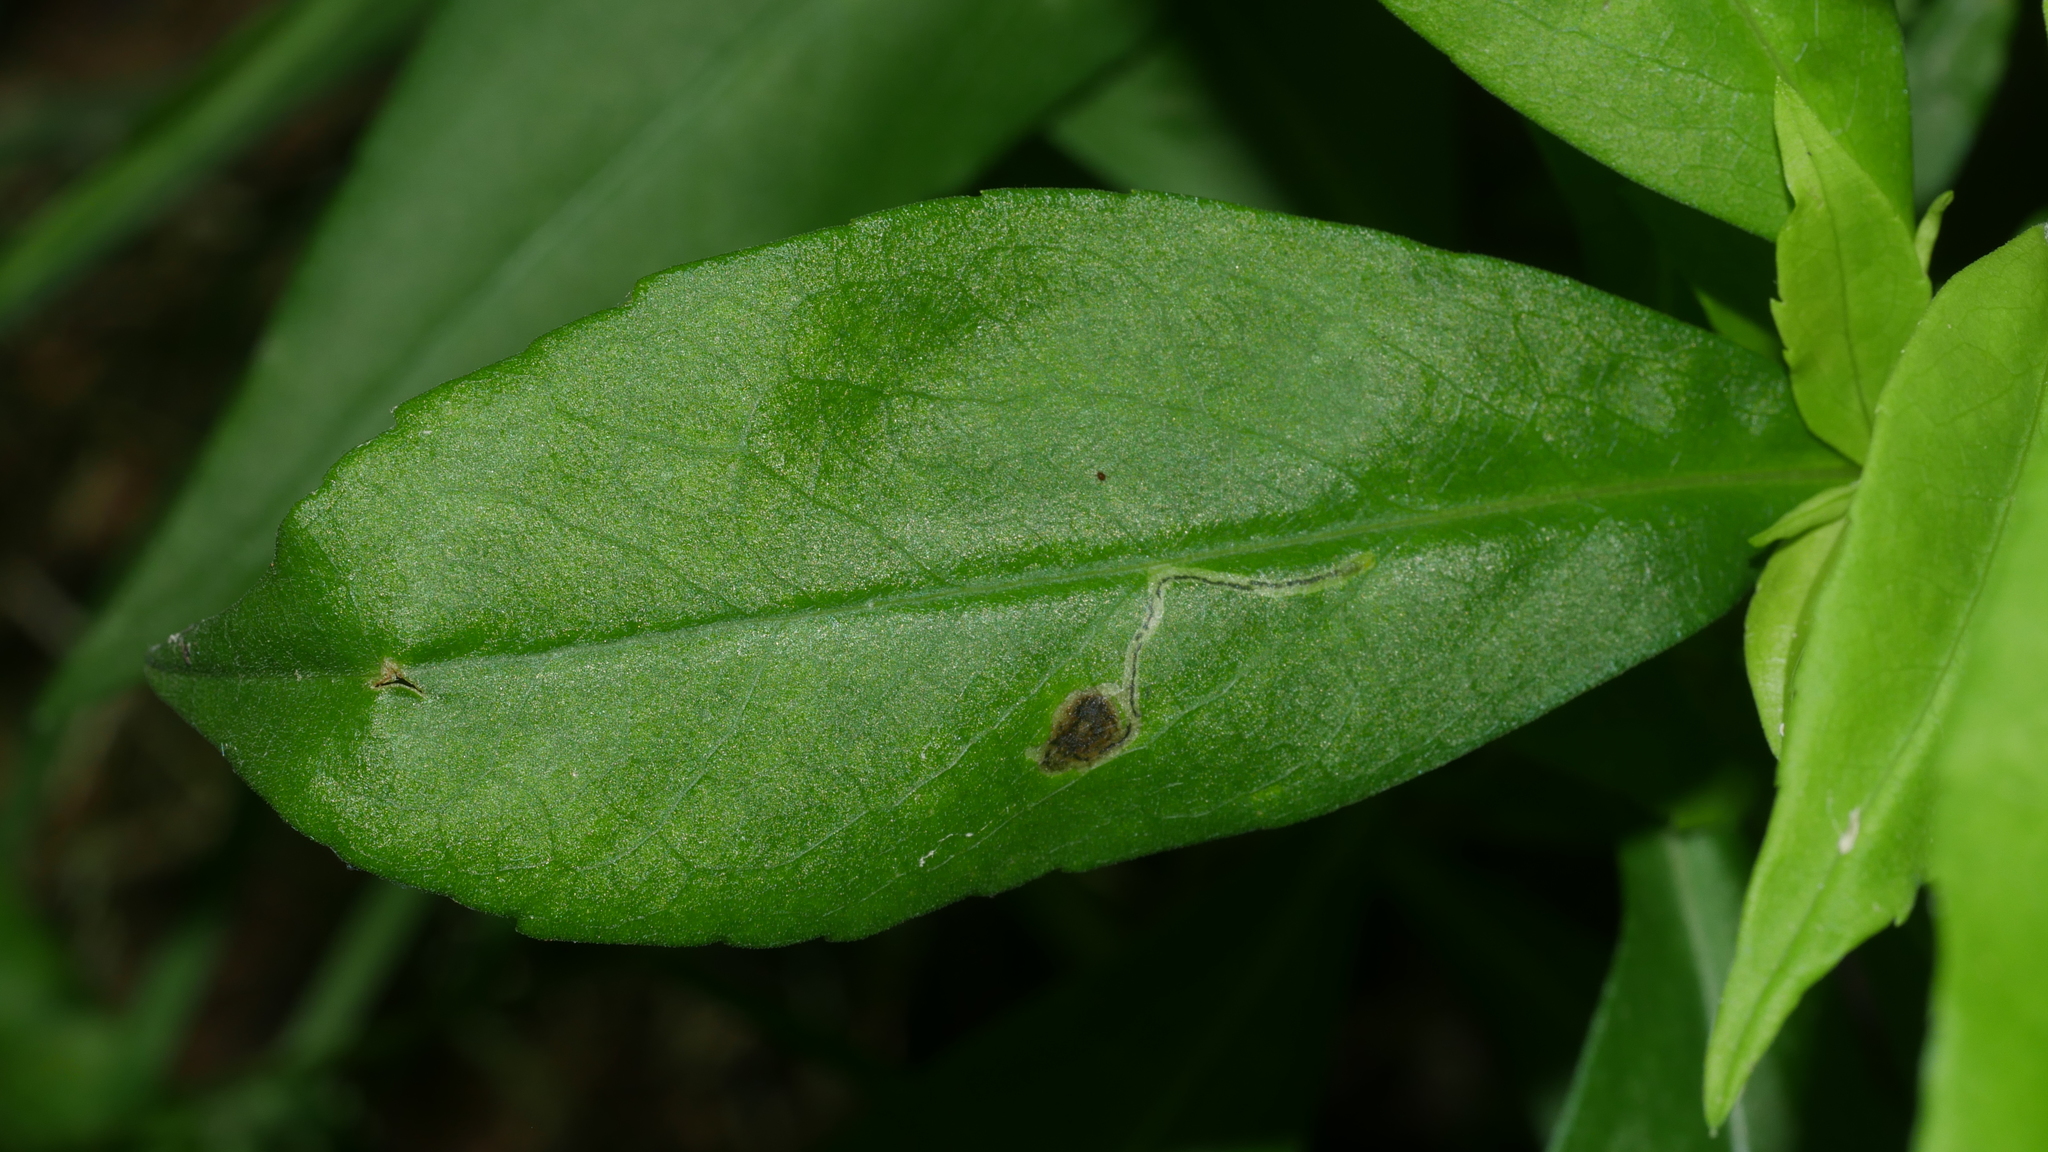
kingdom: Animalia
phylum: Arthropoda
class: Insecta
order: Diptera
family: Agromyzidae
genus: Liriomyza
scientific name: Liriomyza eupatorii
